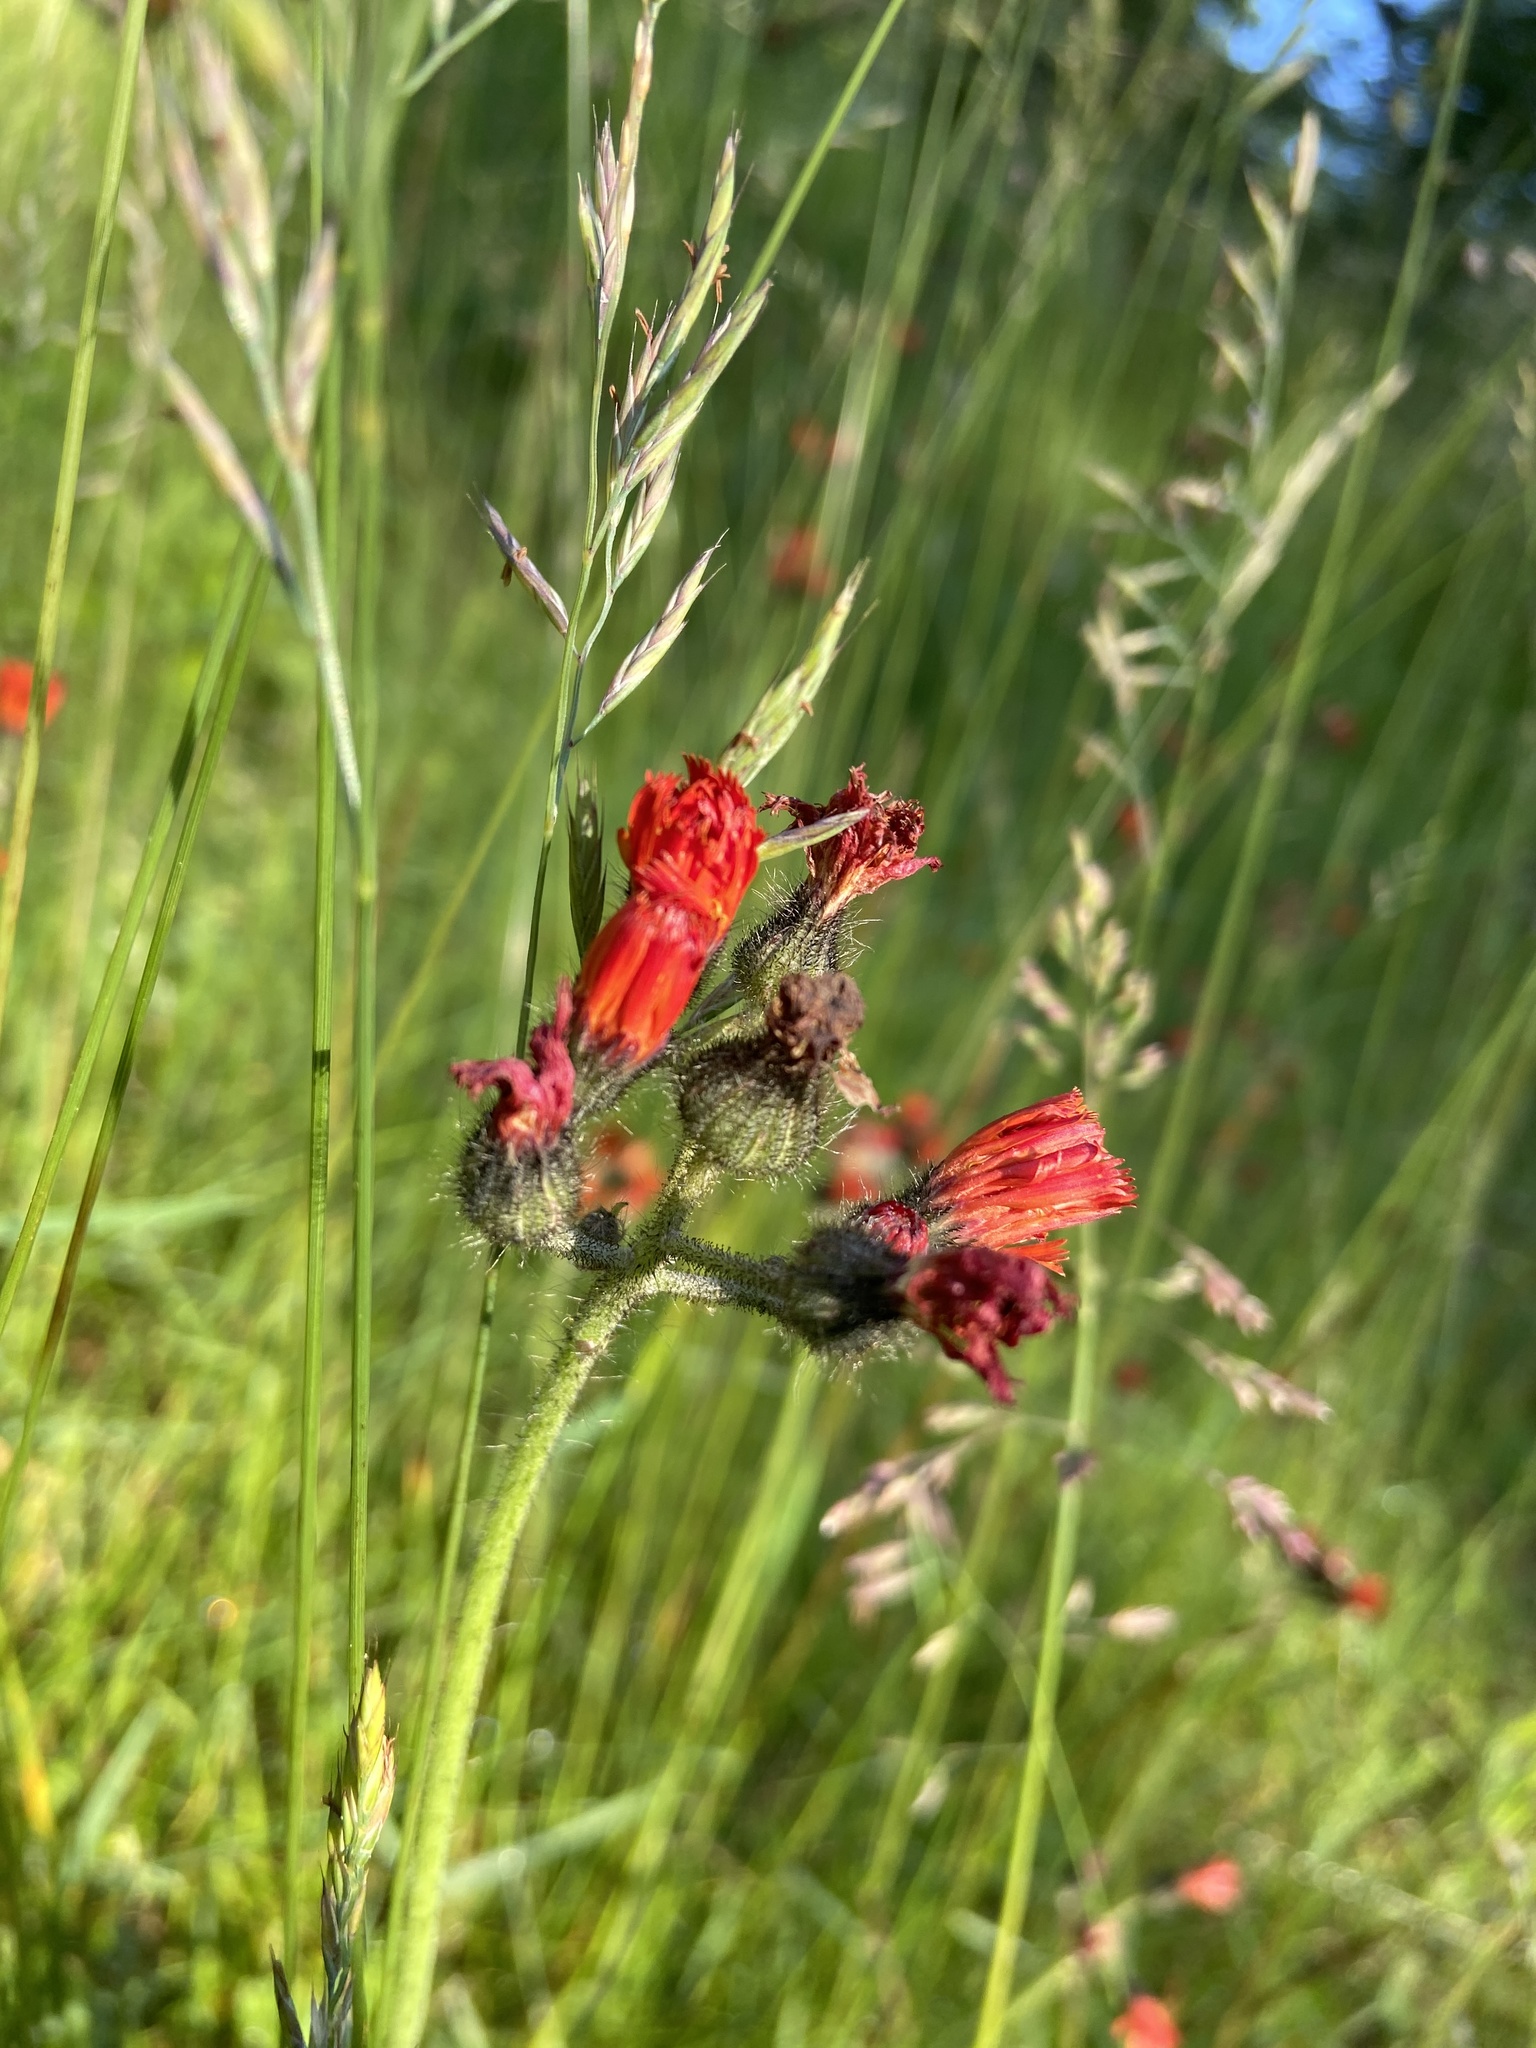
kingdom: Plantae
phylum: Tracheophyta
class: Magnoliopsida
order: Asterales
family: Asteraceae
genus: Pilosella
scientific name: Pilosella aurantiaca
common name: Fox-and-cubs
